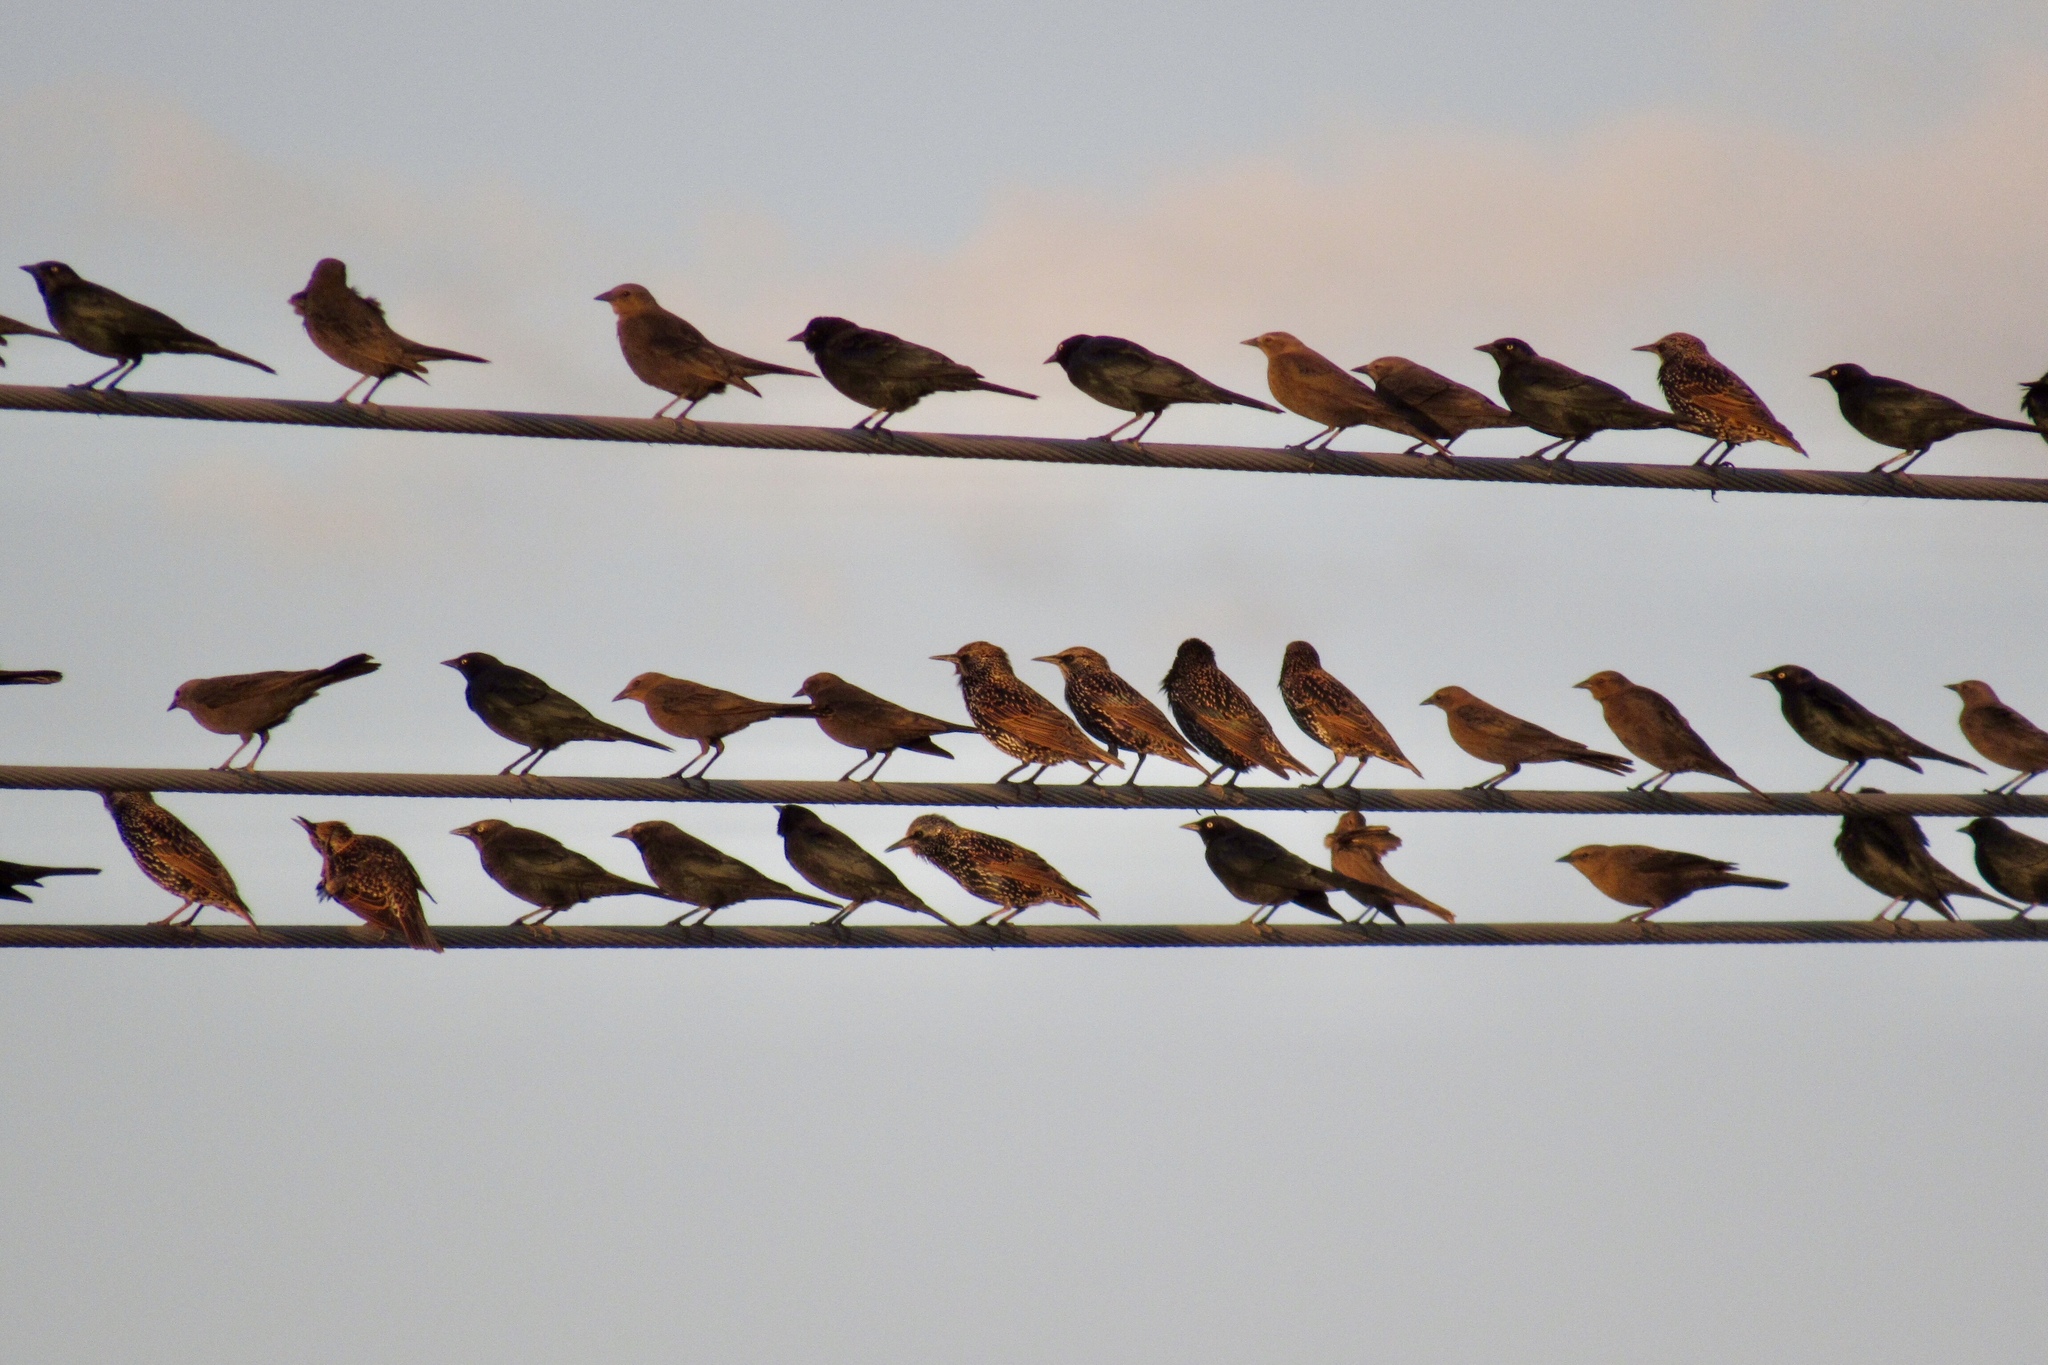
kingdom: Animalia
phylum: Chordata
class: Aves
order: Passeriformes
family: Icteridae
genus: Euphagus
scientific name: Euphagus cyanocephalus
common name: Brewer's blackbird
